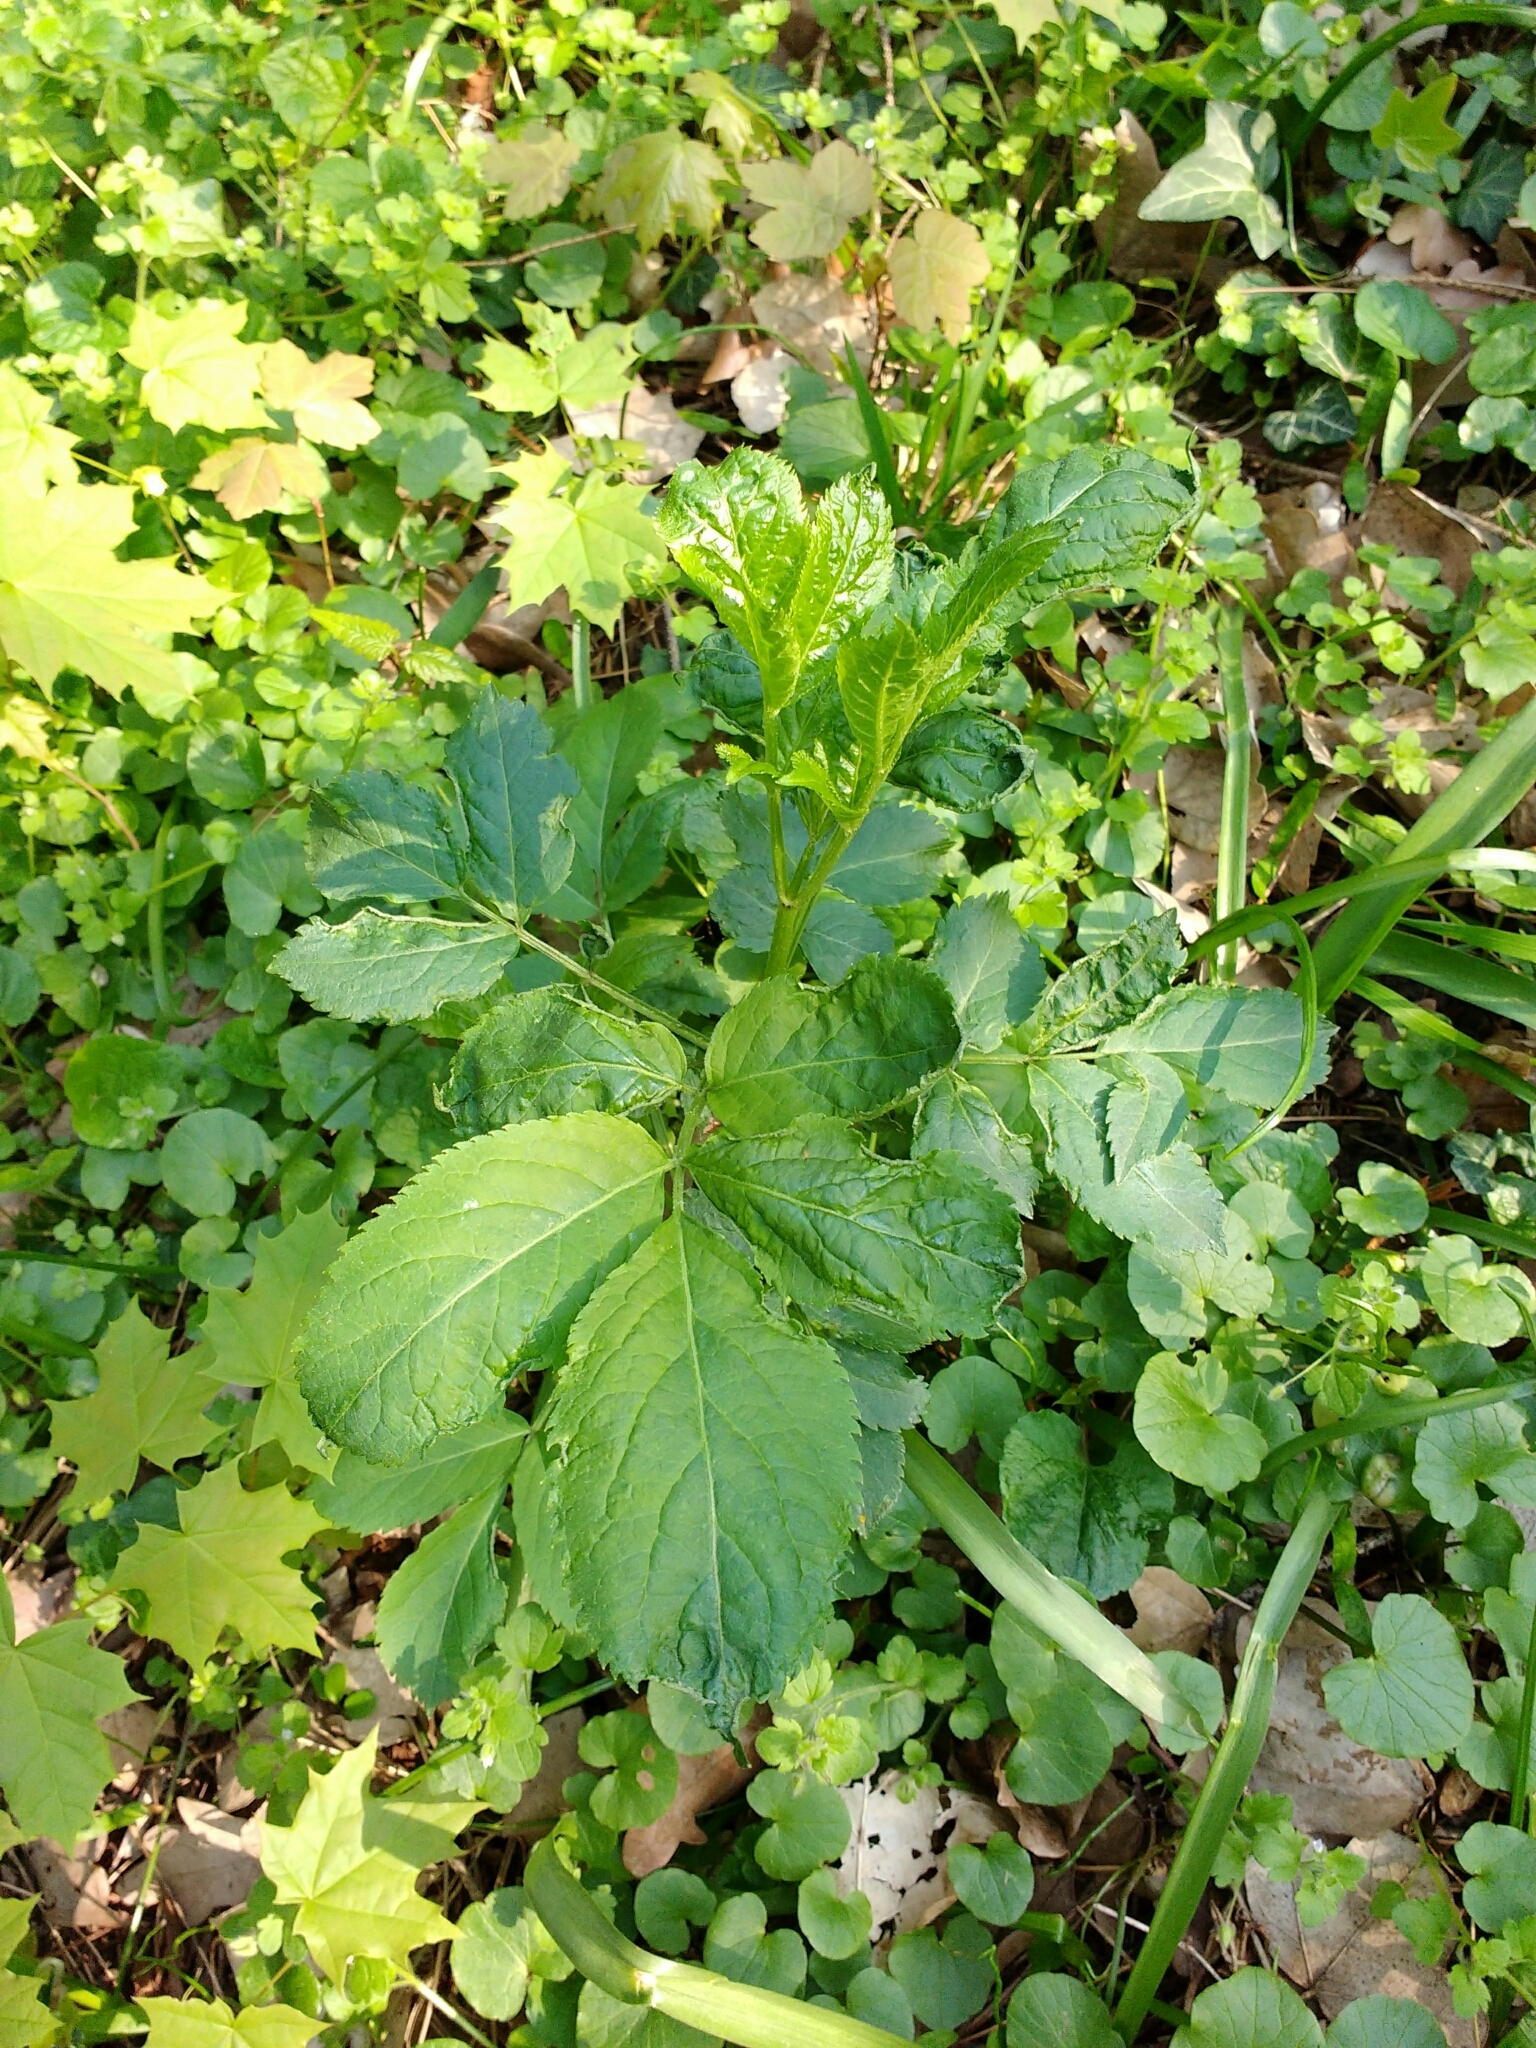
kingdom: Plantae
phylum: Tracheophyta
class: Magnoliopsida
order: Dipsacales
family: Viburnaceae
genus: Sambucus
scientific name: Sambucus nigra
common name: Elder
